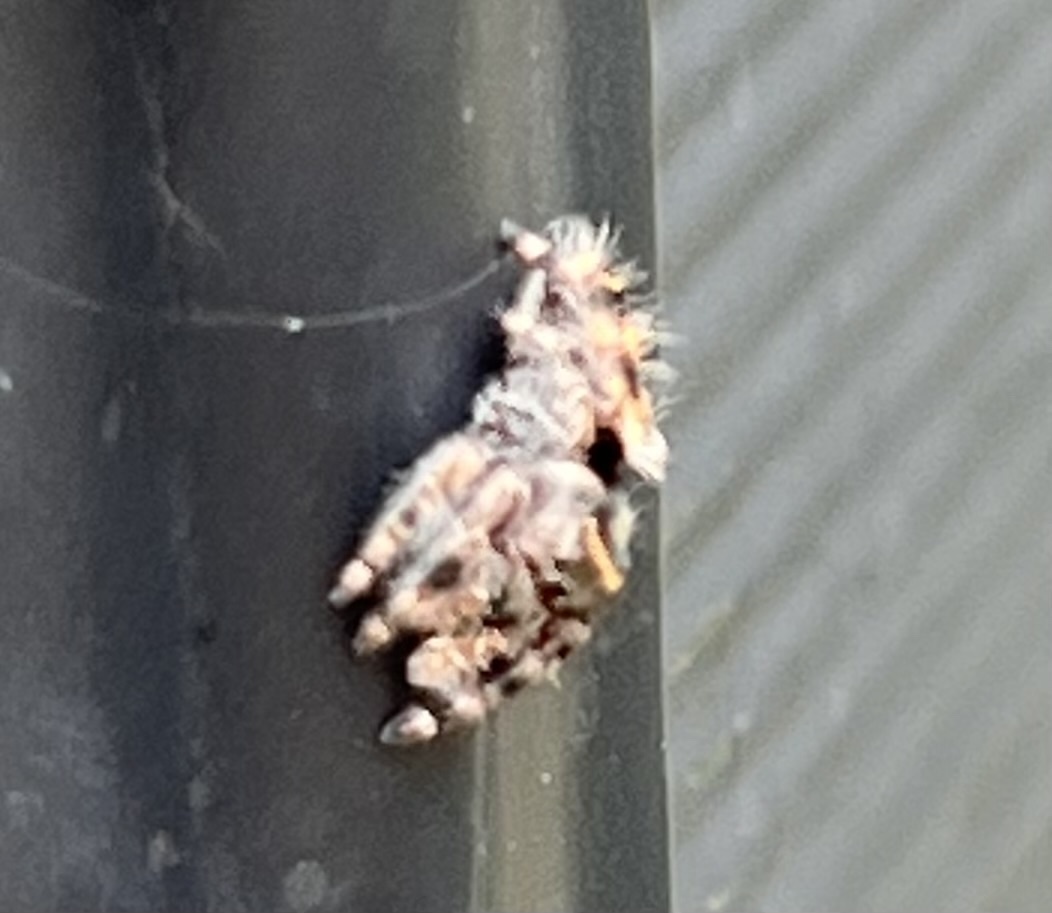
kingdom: Animalia
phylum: Arthropoda
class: Arachnida
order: Araneae
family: Salticidae
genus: Phidippus
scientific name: Phidippus audax
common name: Bold jumper
